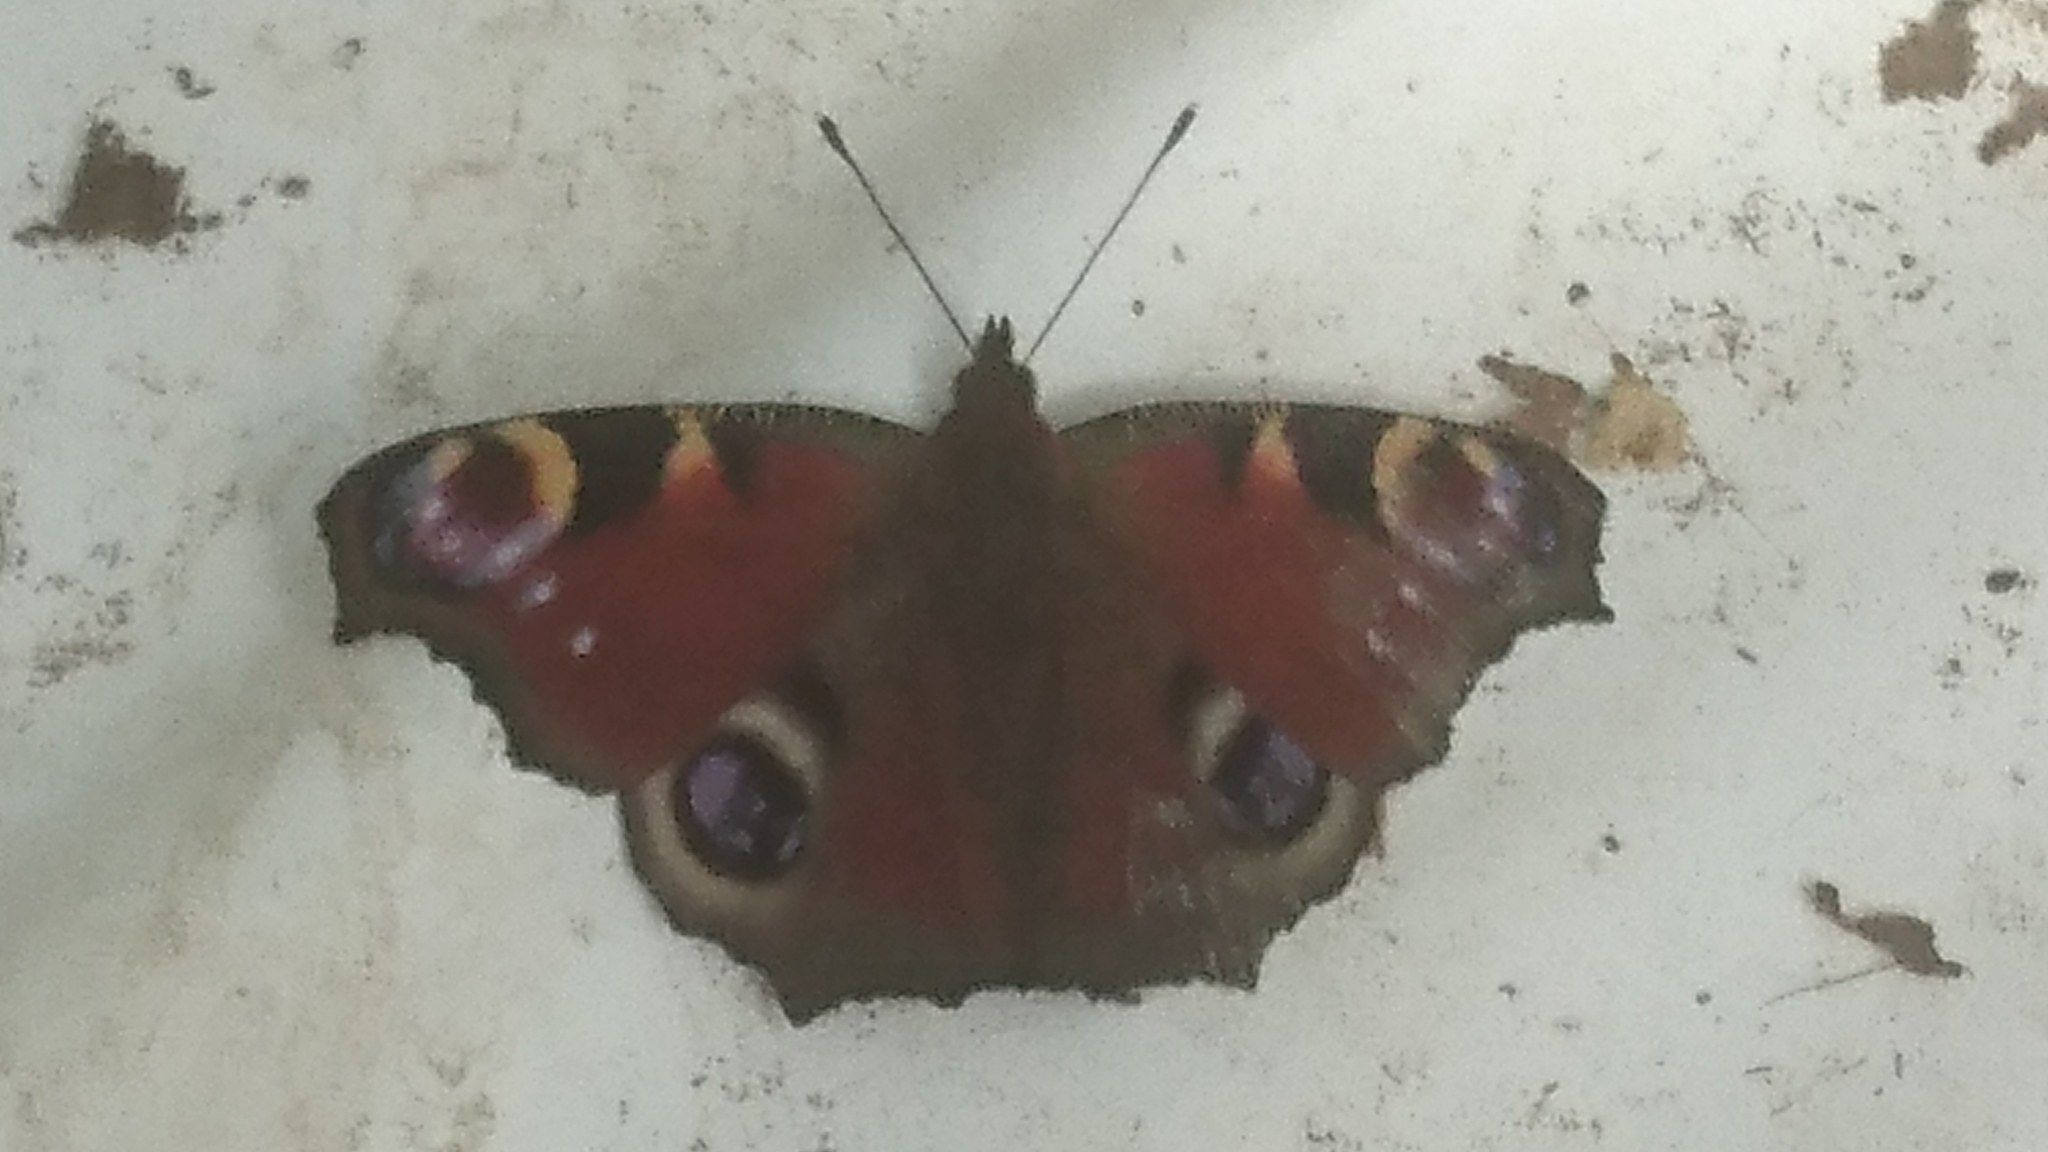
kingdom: Animalia
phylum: Arthropoda
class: Insecta
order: Lepidoptera
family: Nymphalidae
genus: Aglais
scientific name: Aglais io
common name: Peacock
